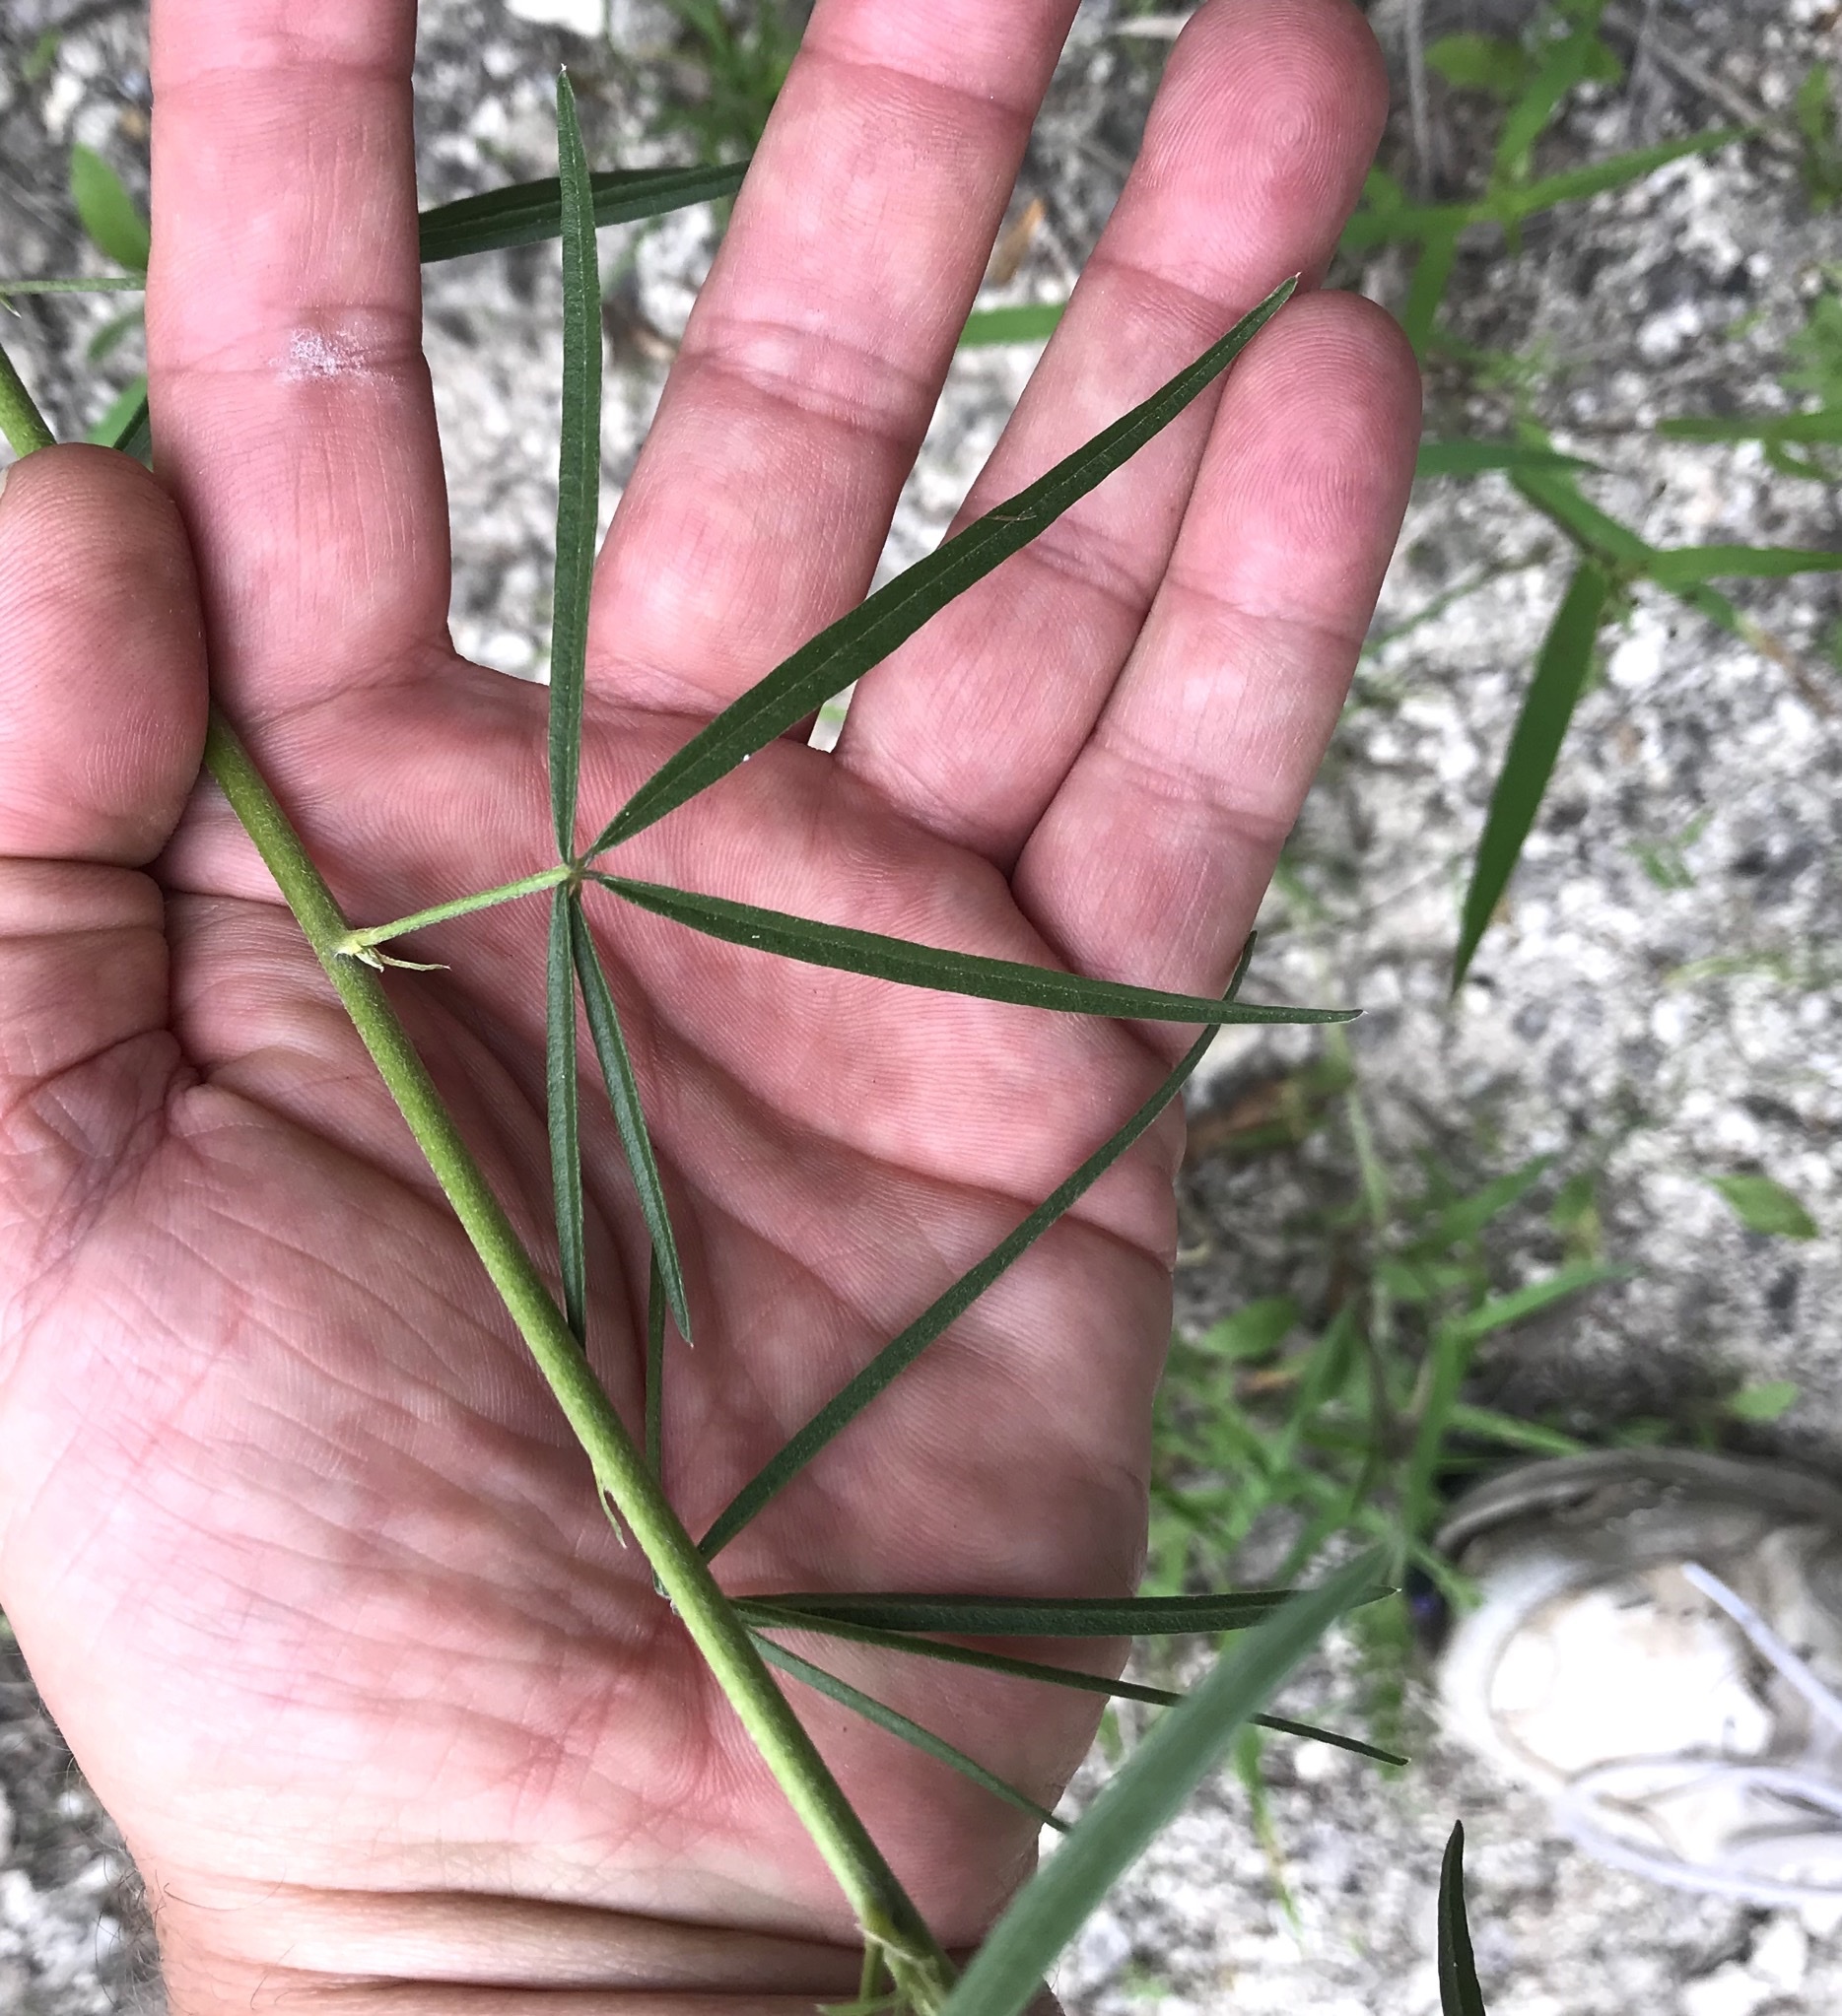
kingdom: Plantae
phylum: Tracheophyta
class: Magnoliopsida
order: Fabales
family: Fabaceae
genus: Pediomelum
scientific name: Pediomelum linearifolium
